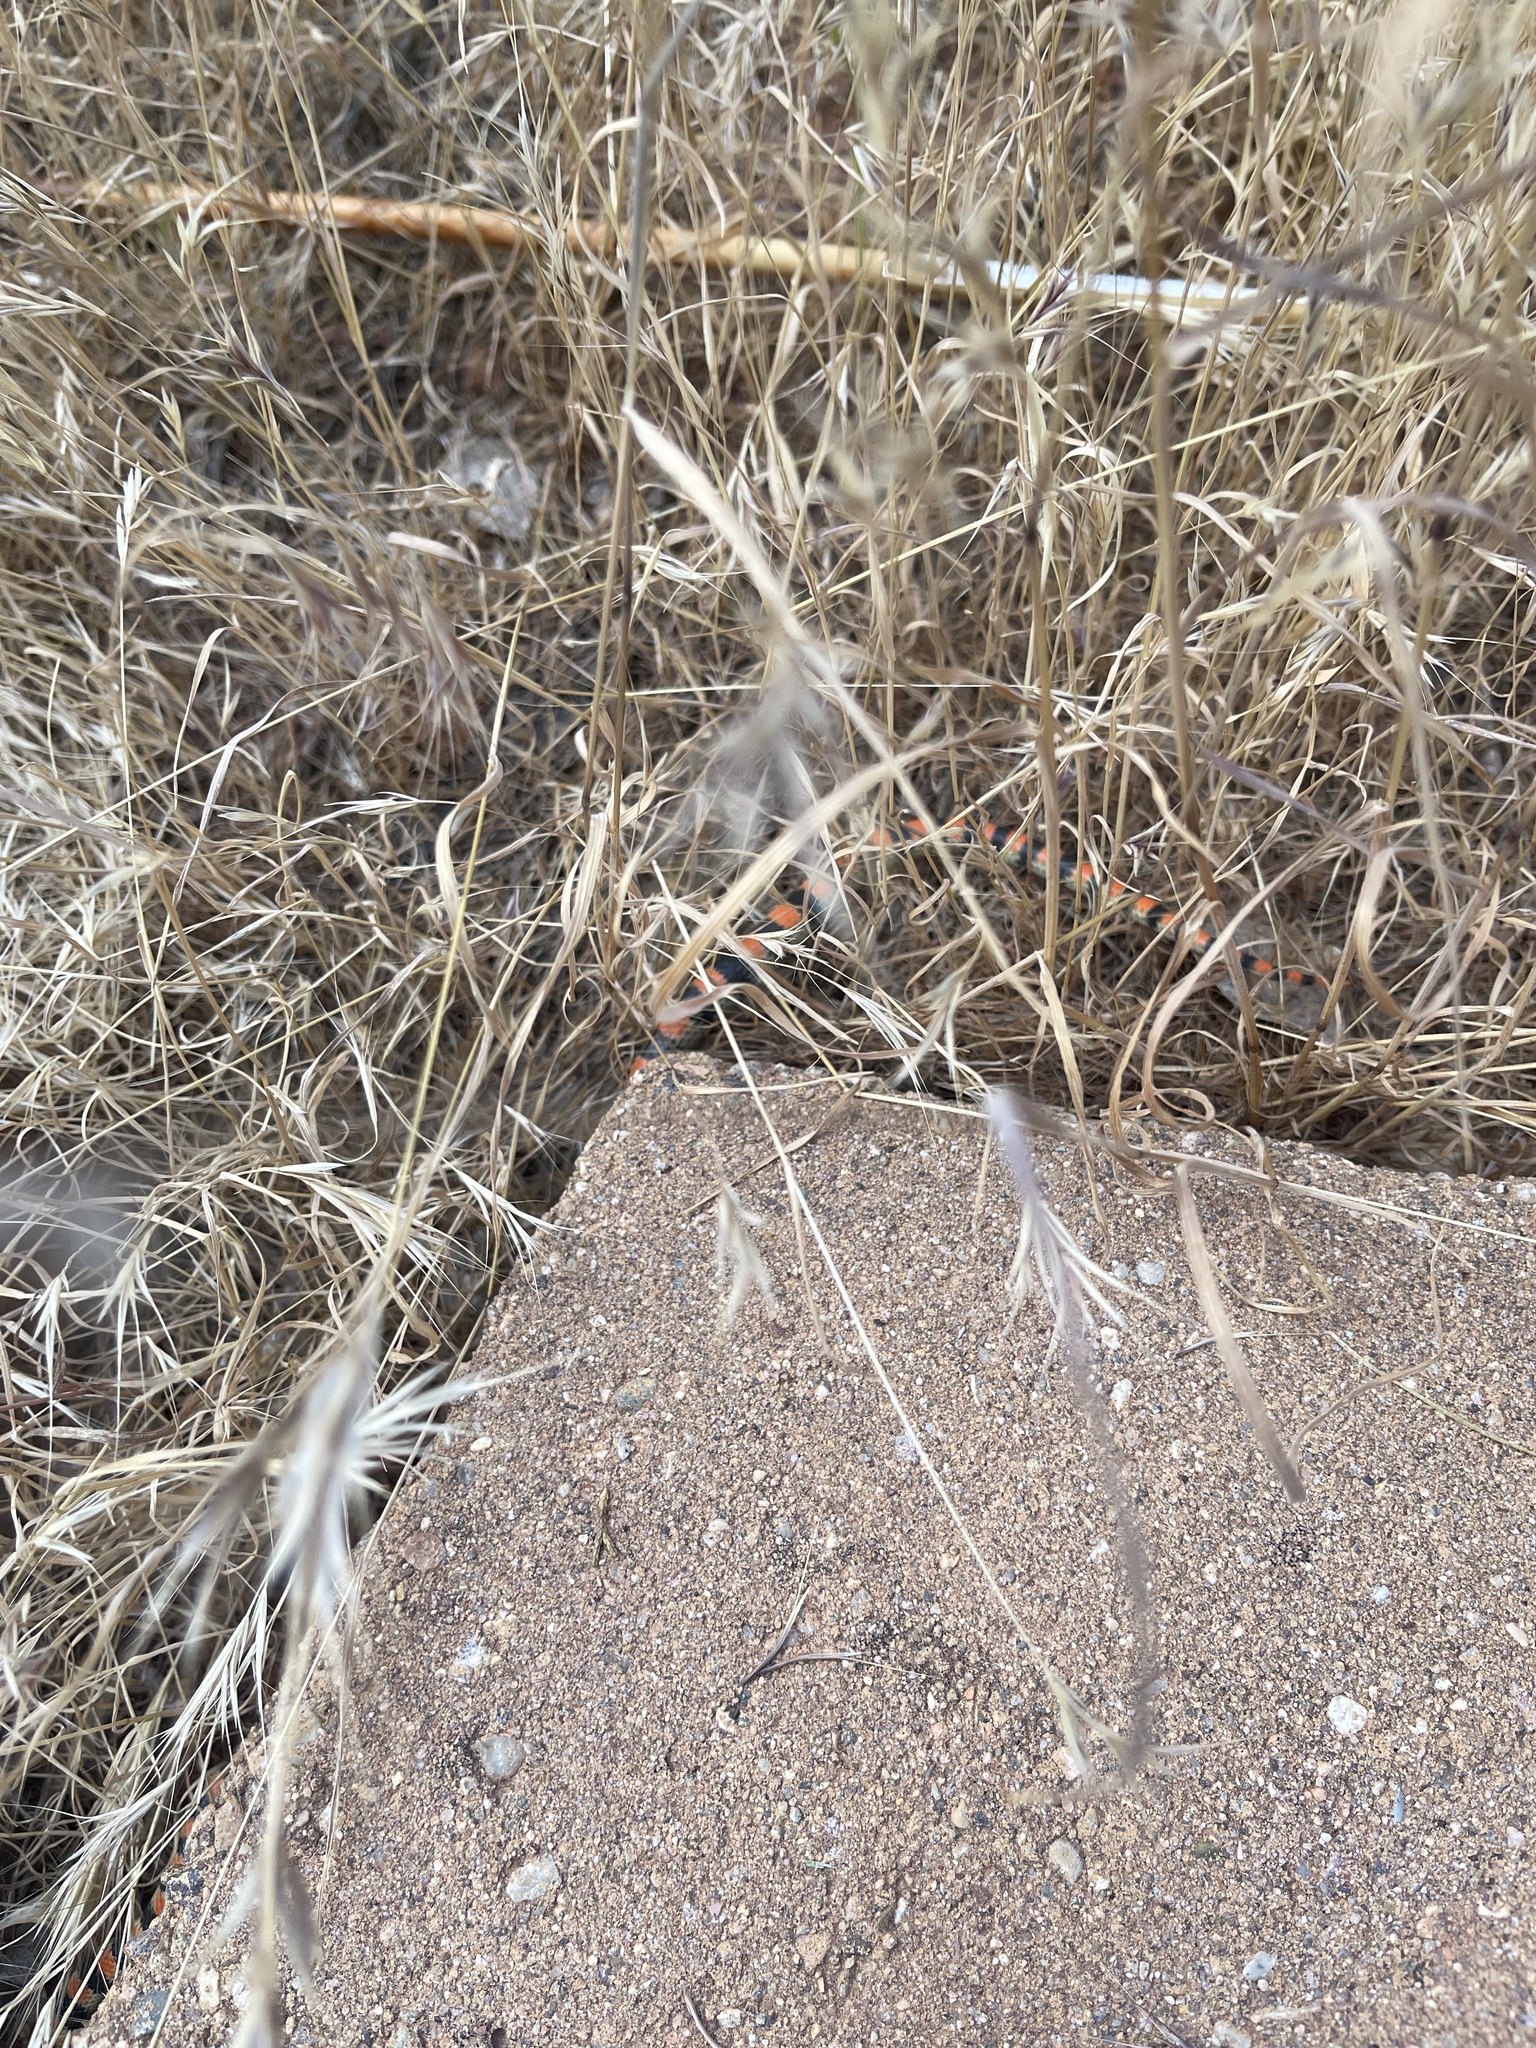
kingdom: Animalia
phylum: Chordata
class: Squamata
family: Colubridae
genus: Sonora
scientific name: Sonora semiannulata
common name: Ground snake
